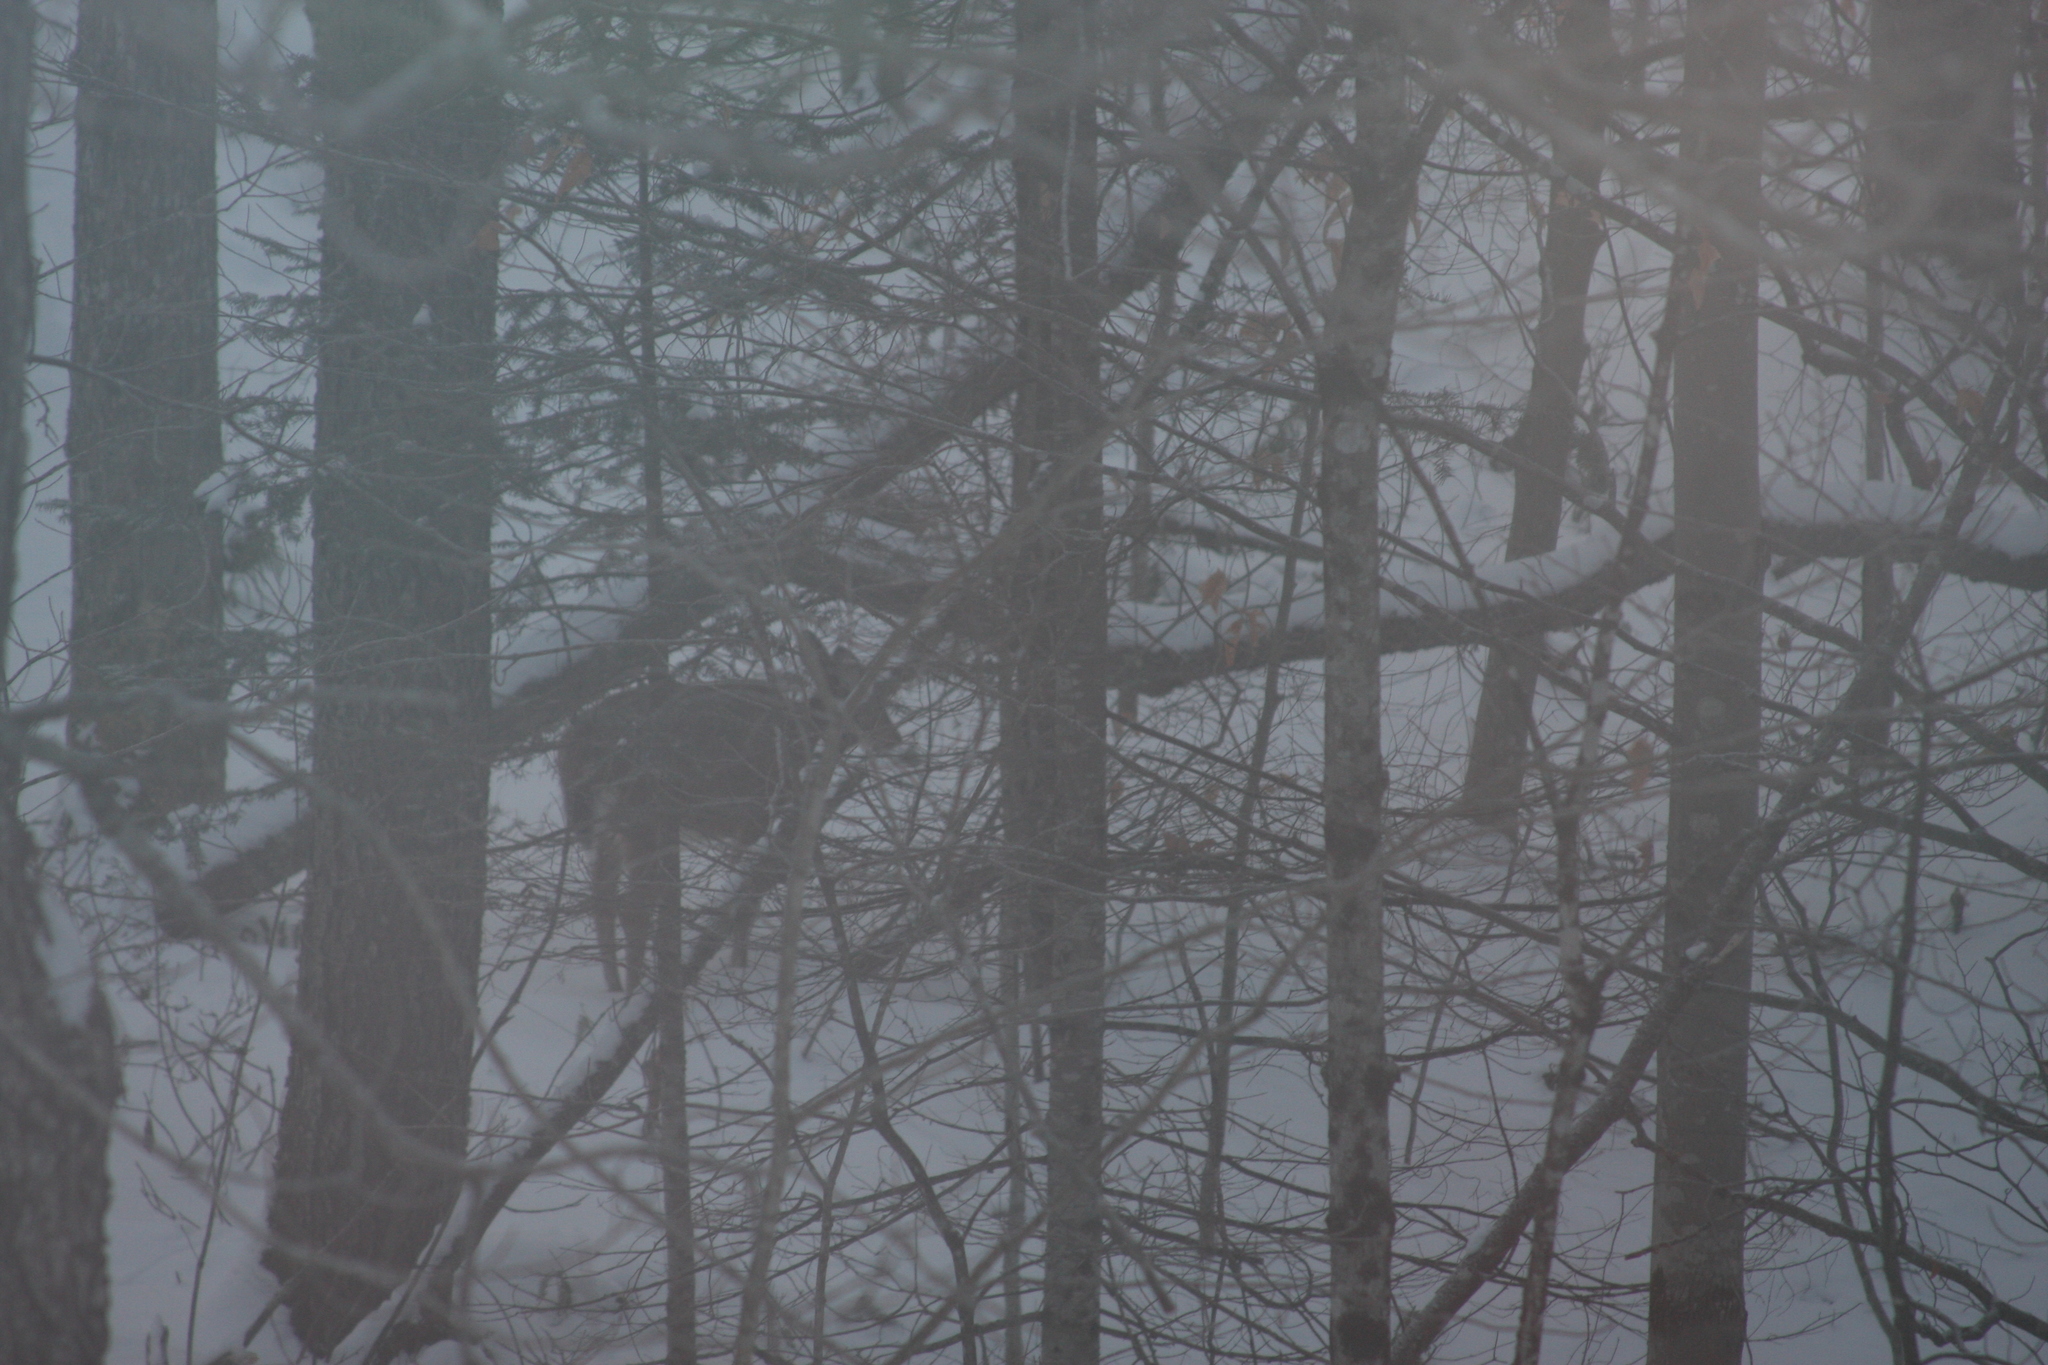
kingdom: Animalia
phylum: Chordata
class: Mammalia
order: Artiodactyla
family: Cervidae
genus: Odocoileus
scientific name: Odocoileus virginianus
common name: White-tailed deer
